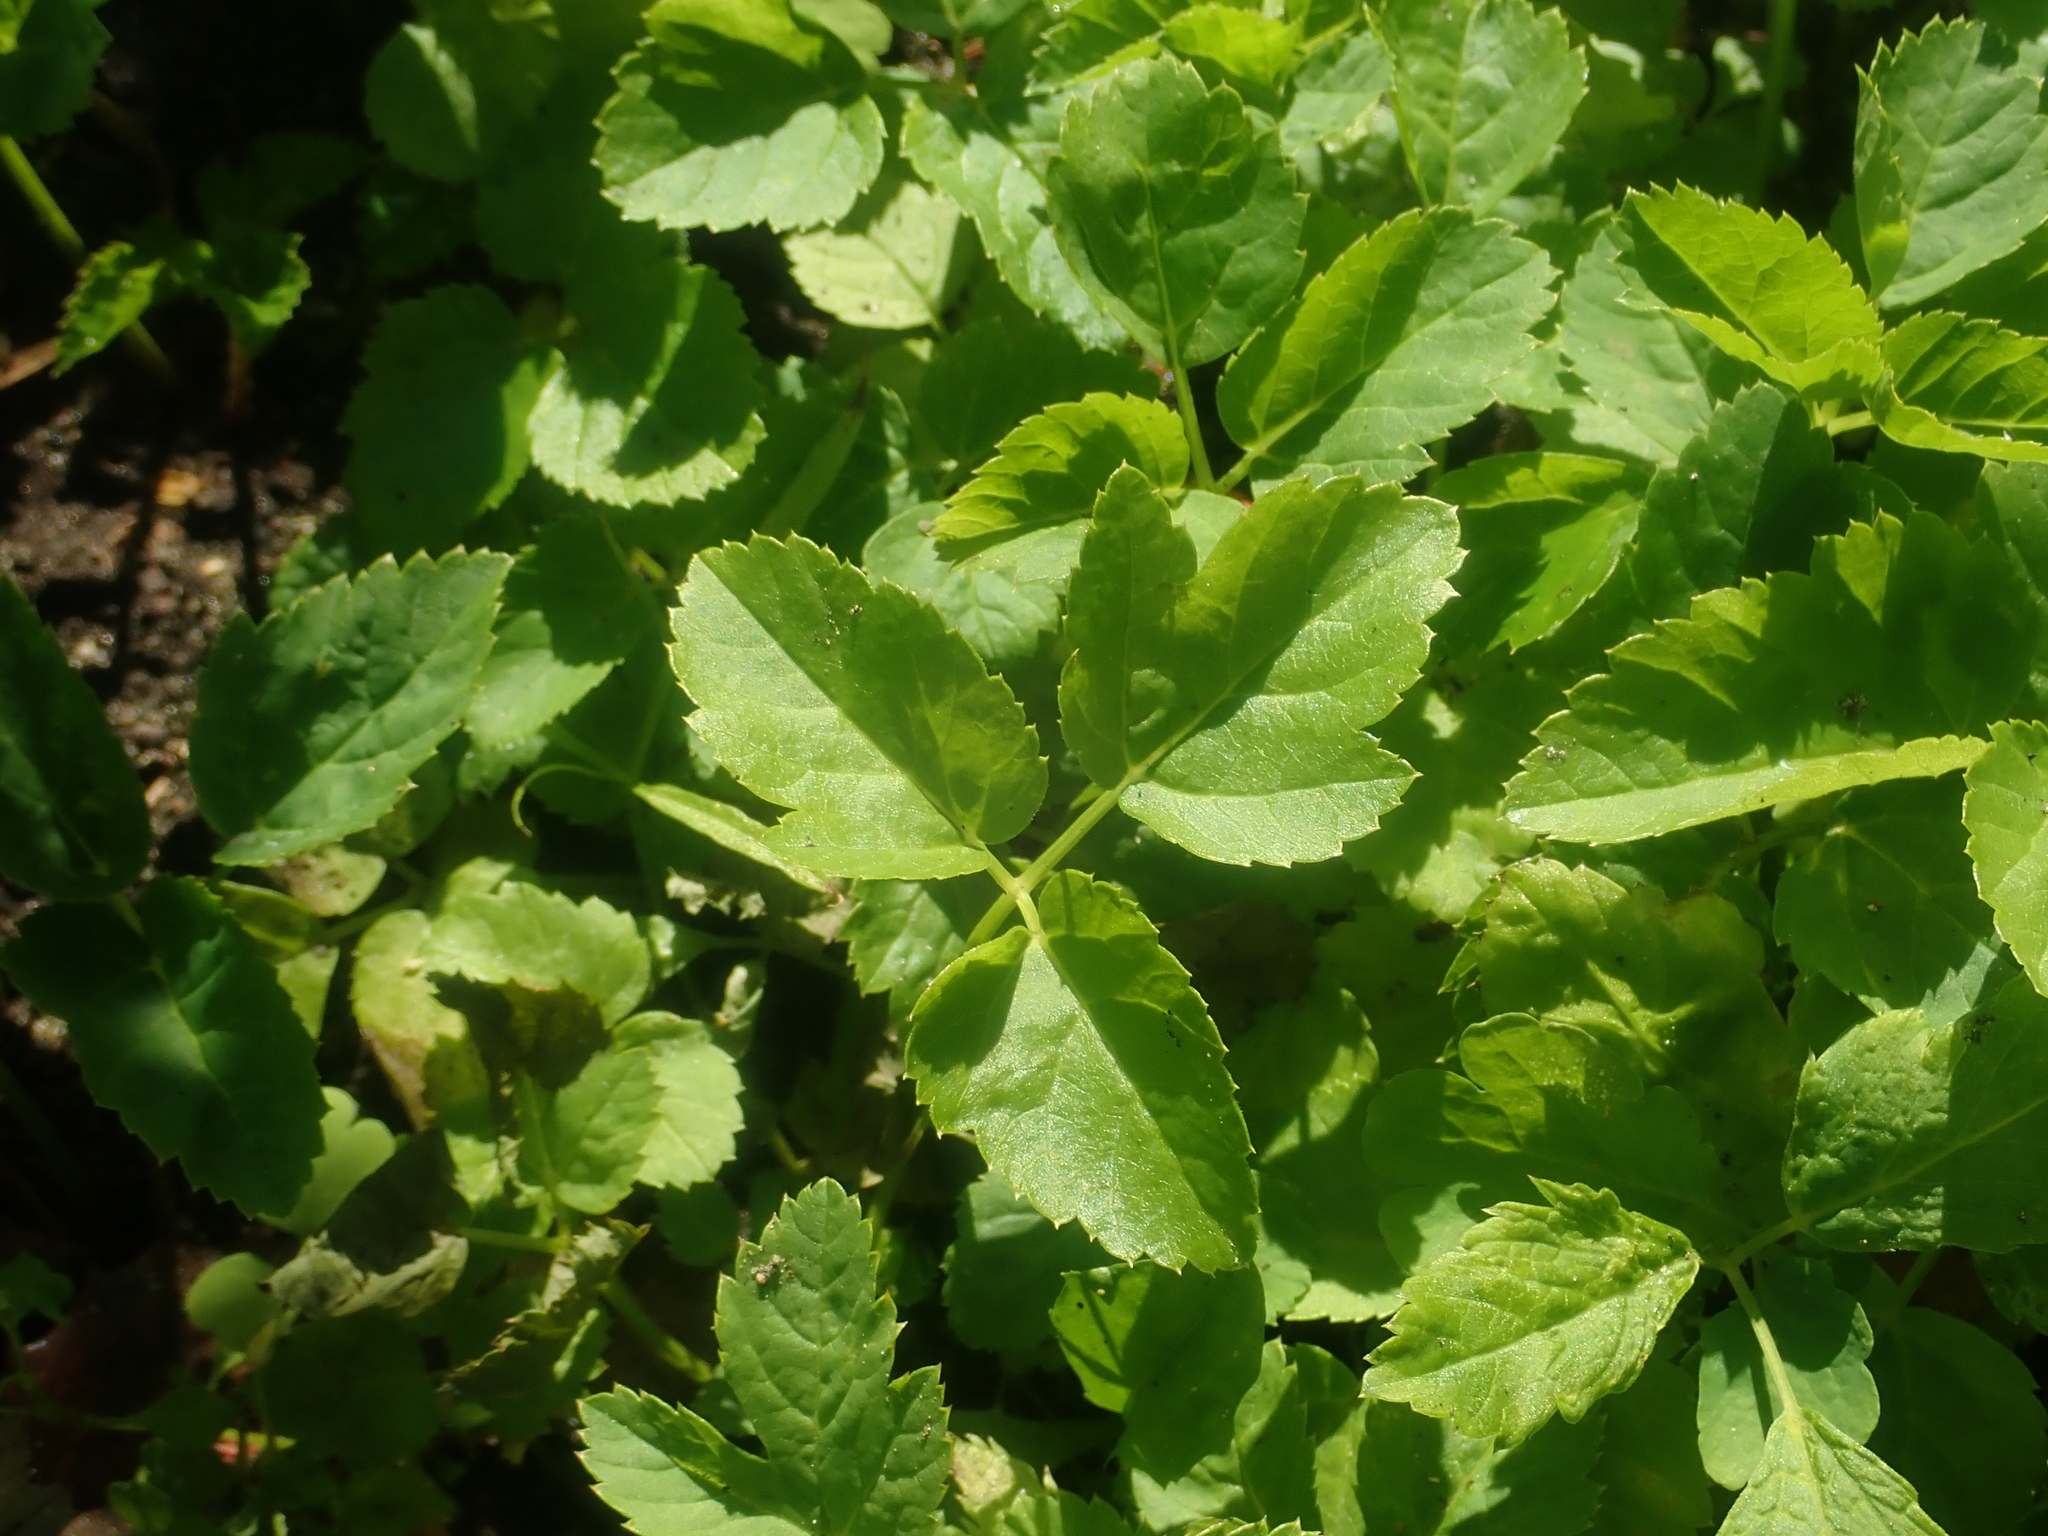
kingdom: Plantae
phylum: Tracheophyta
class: Magnoliopsida
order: Apiales
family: Apiaceae
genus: Aegopodium
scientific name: Aegopodium podagraria
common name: Ground-elder
